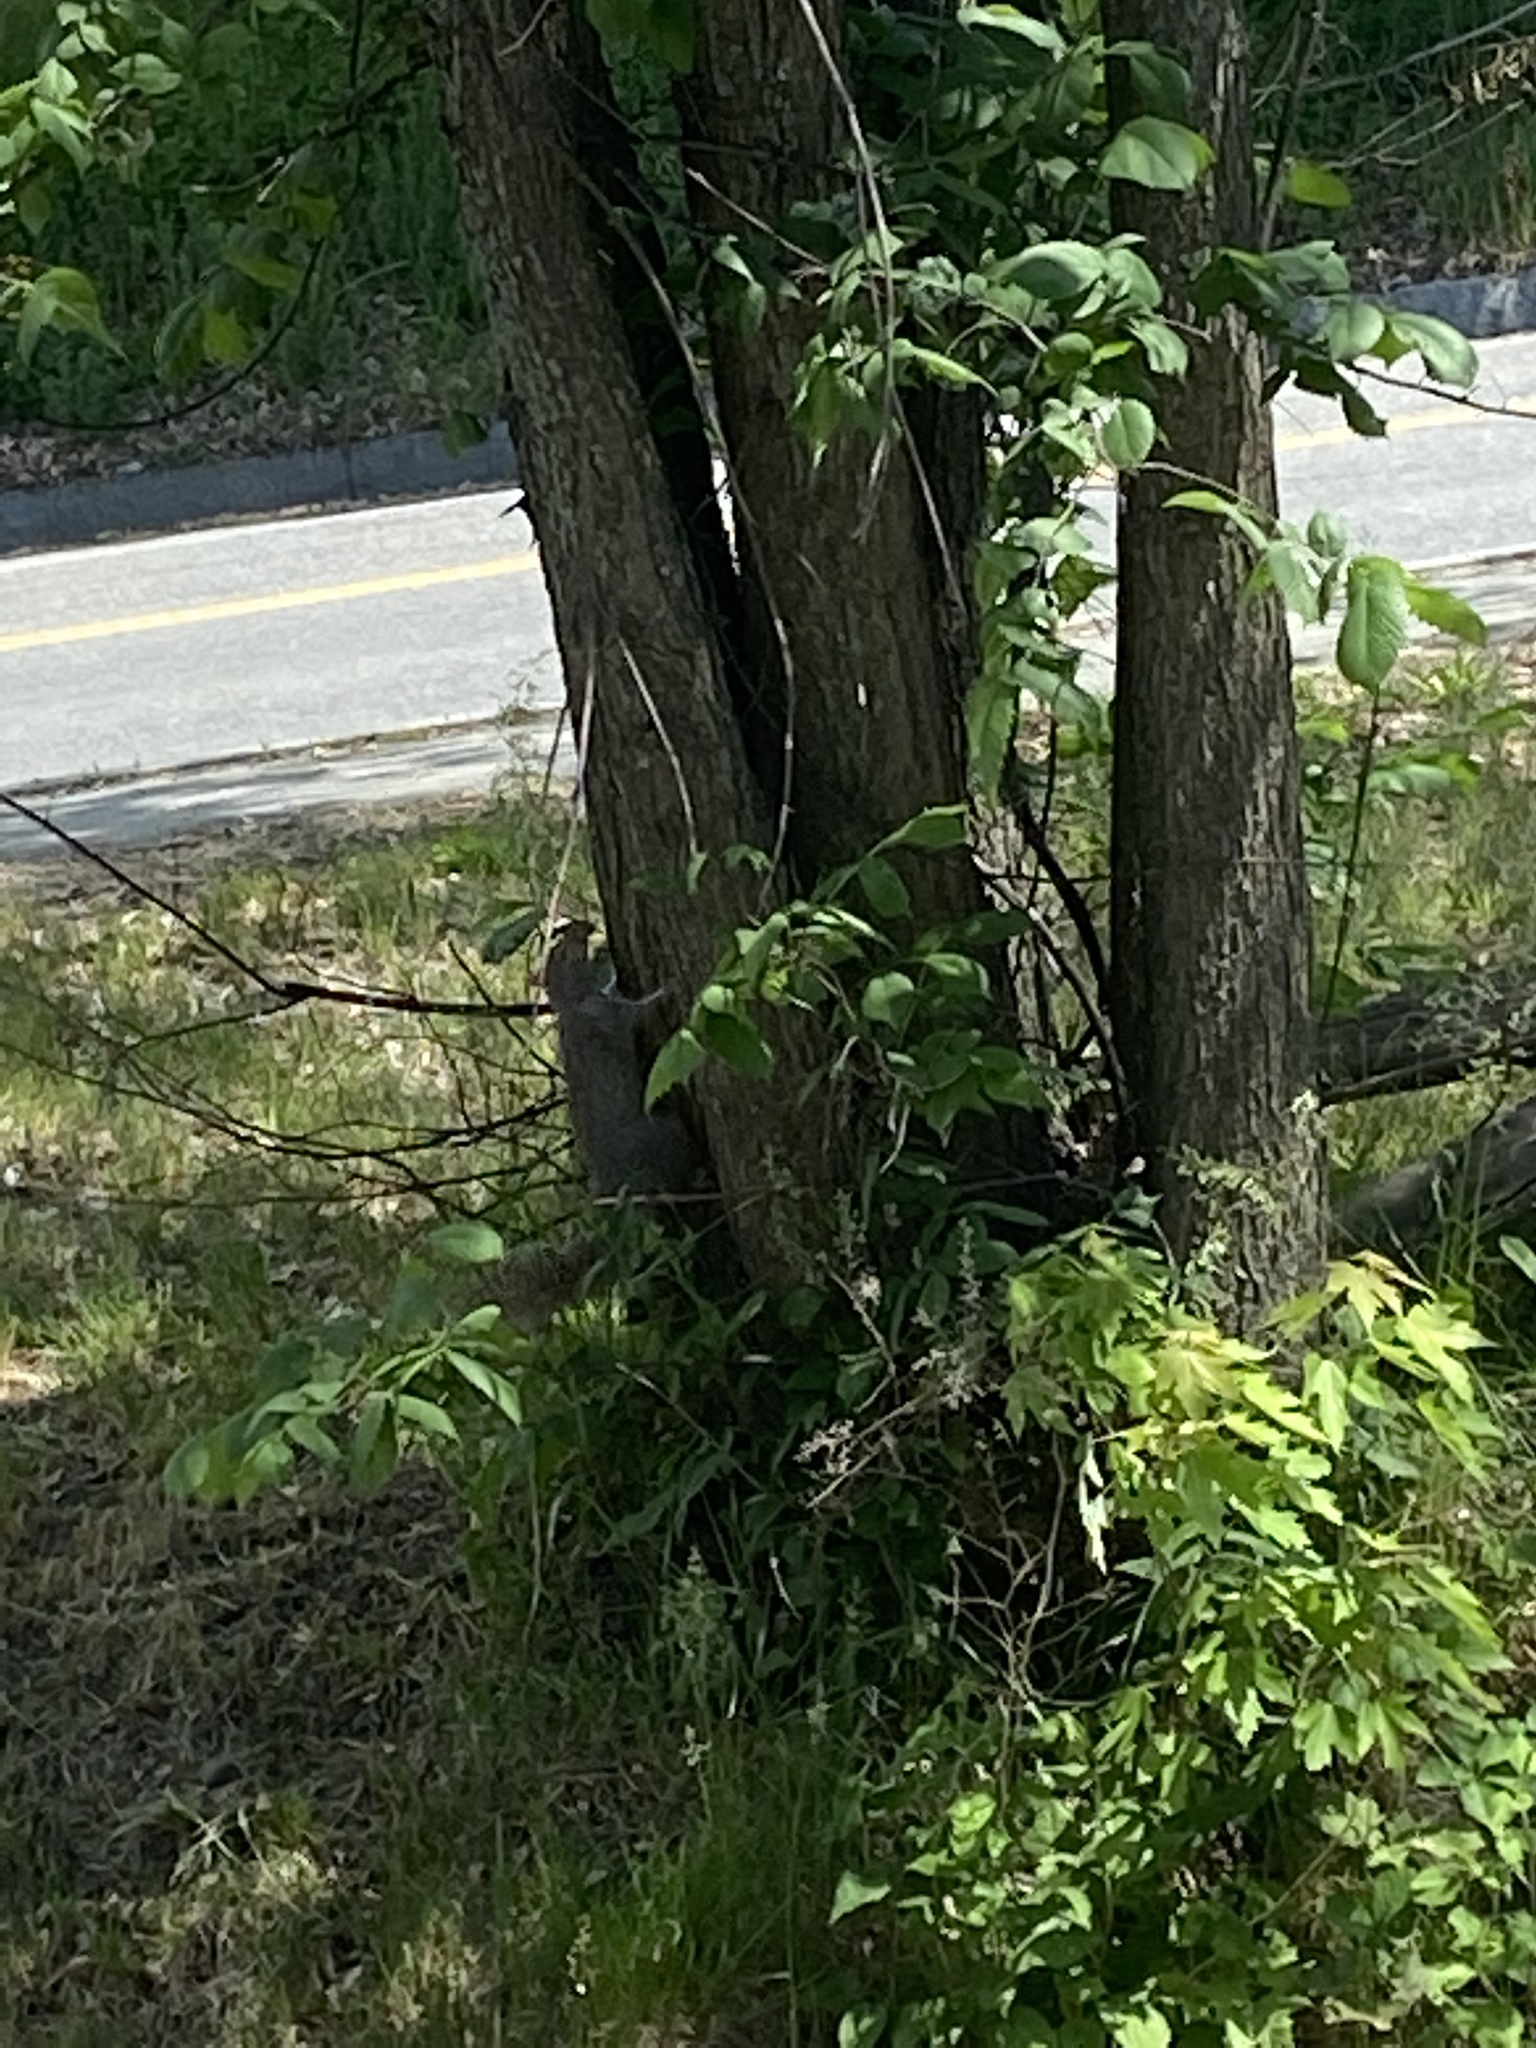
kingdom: Animalia
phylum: Chordata
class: Mammalia
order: Rodentia
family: Sciuridae
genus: Sciurus
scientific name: Sciurus carolinensis
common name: Eastern gray squirrel
